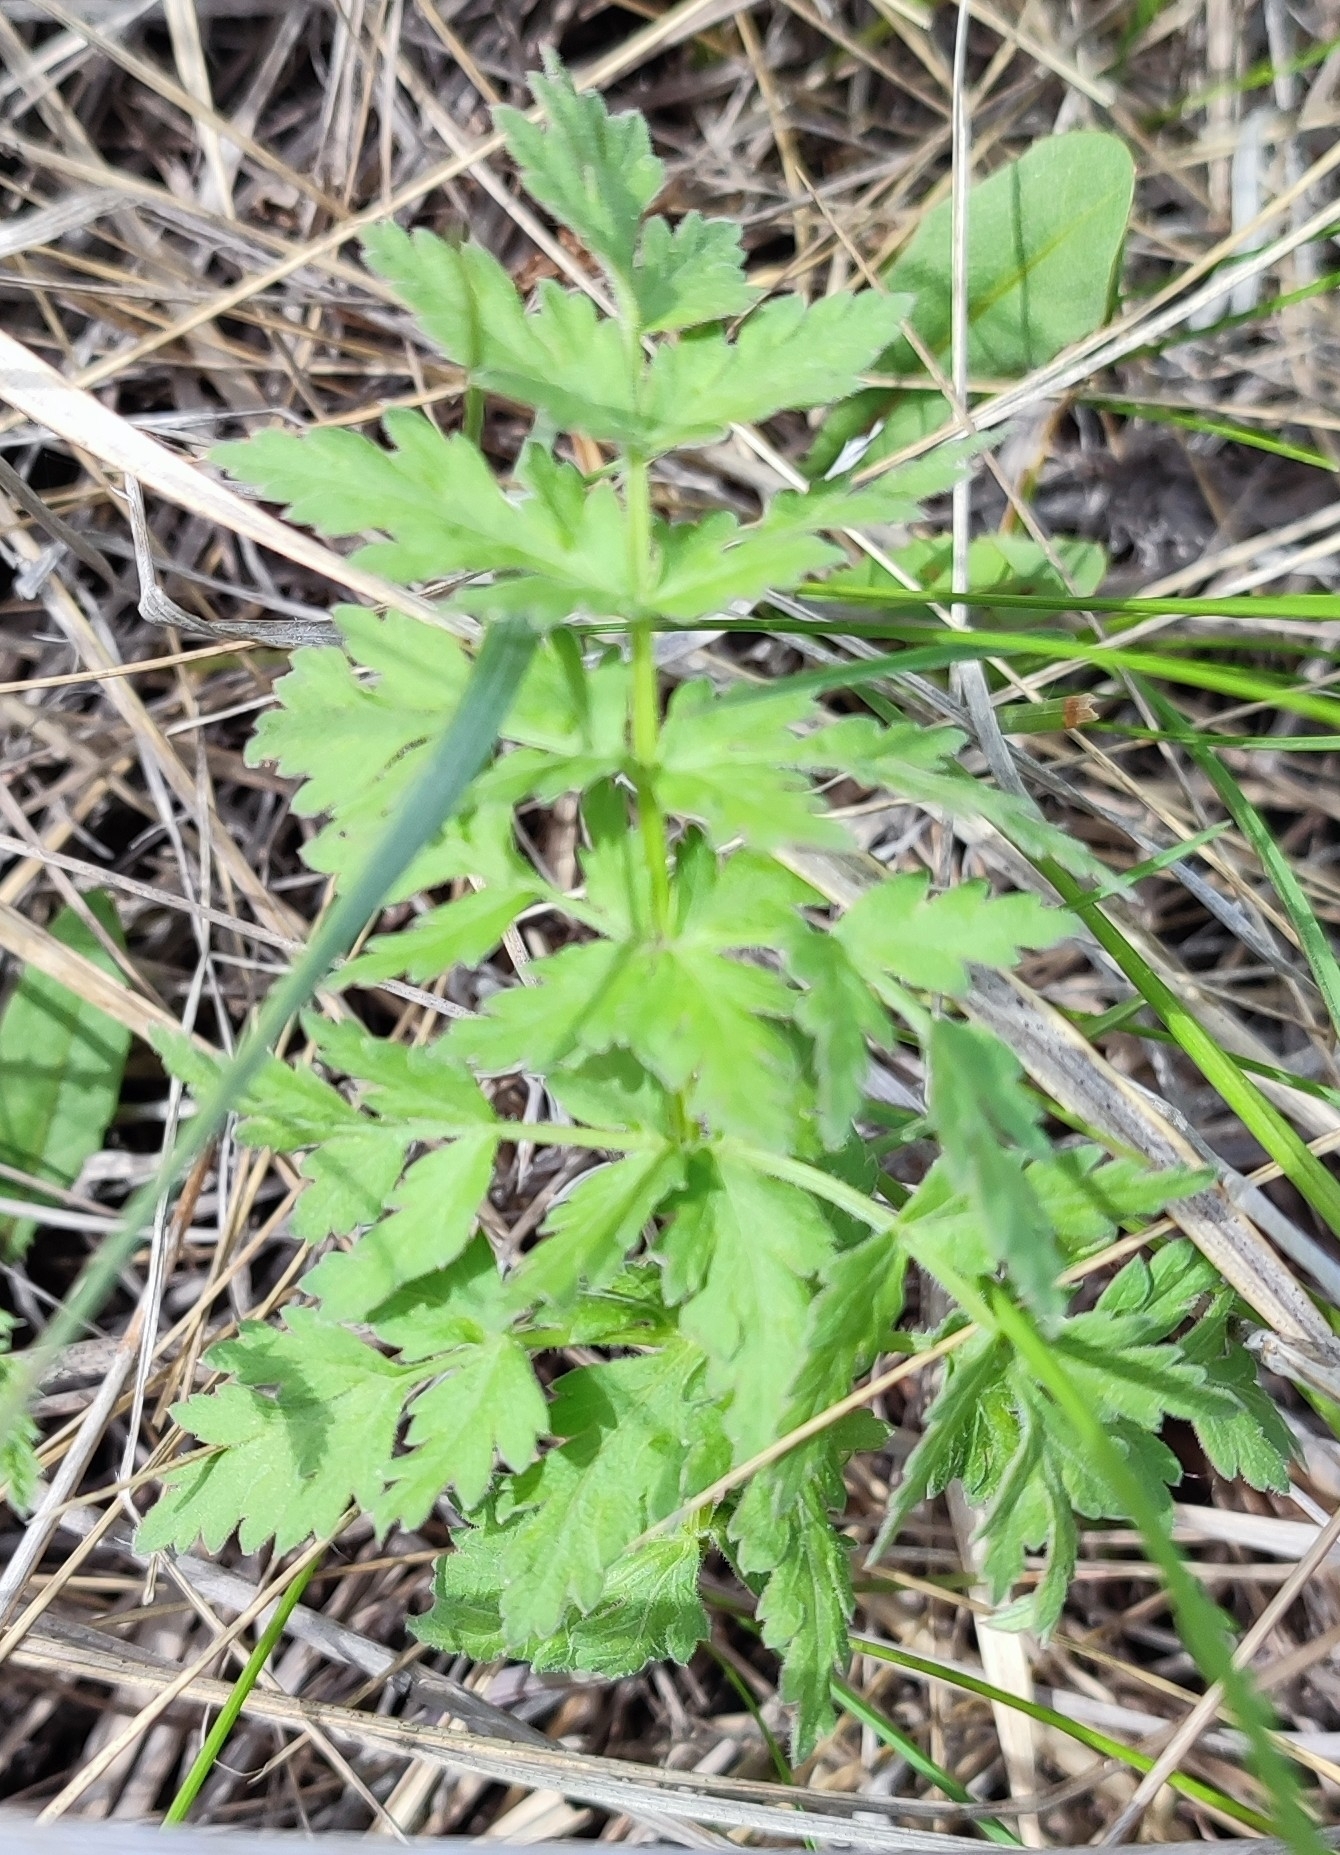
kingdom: Plantae
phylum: Tracheophyta
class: Magnoliopsida
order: Apiales
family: Apiaceae
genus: Seseli
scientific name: Seseli libanotis
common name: Mooncarrot
